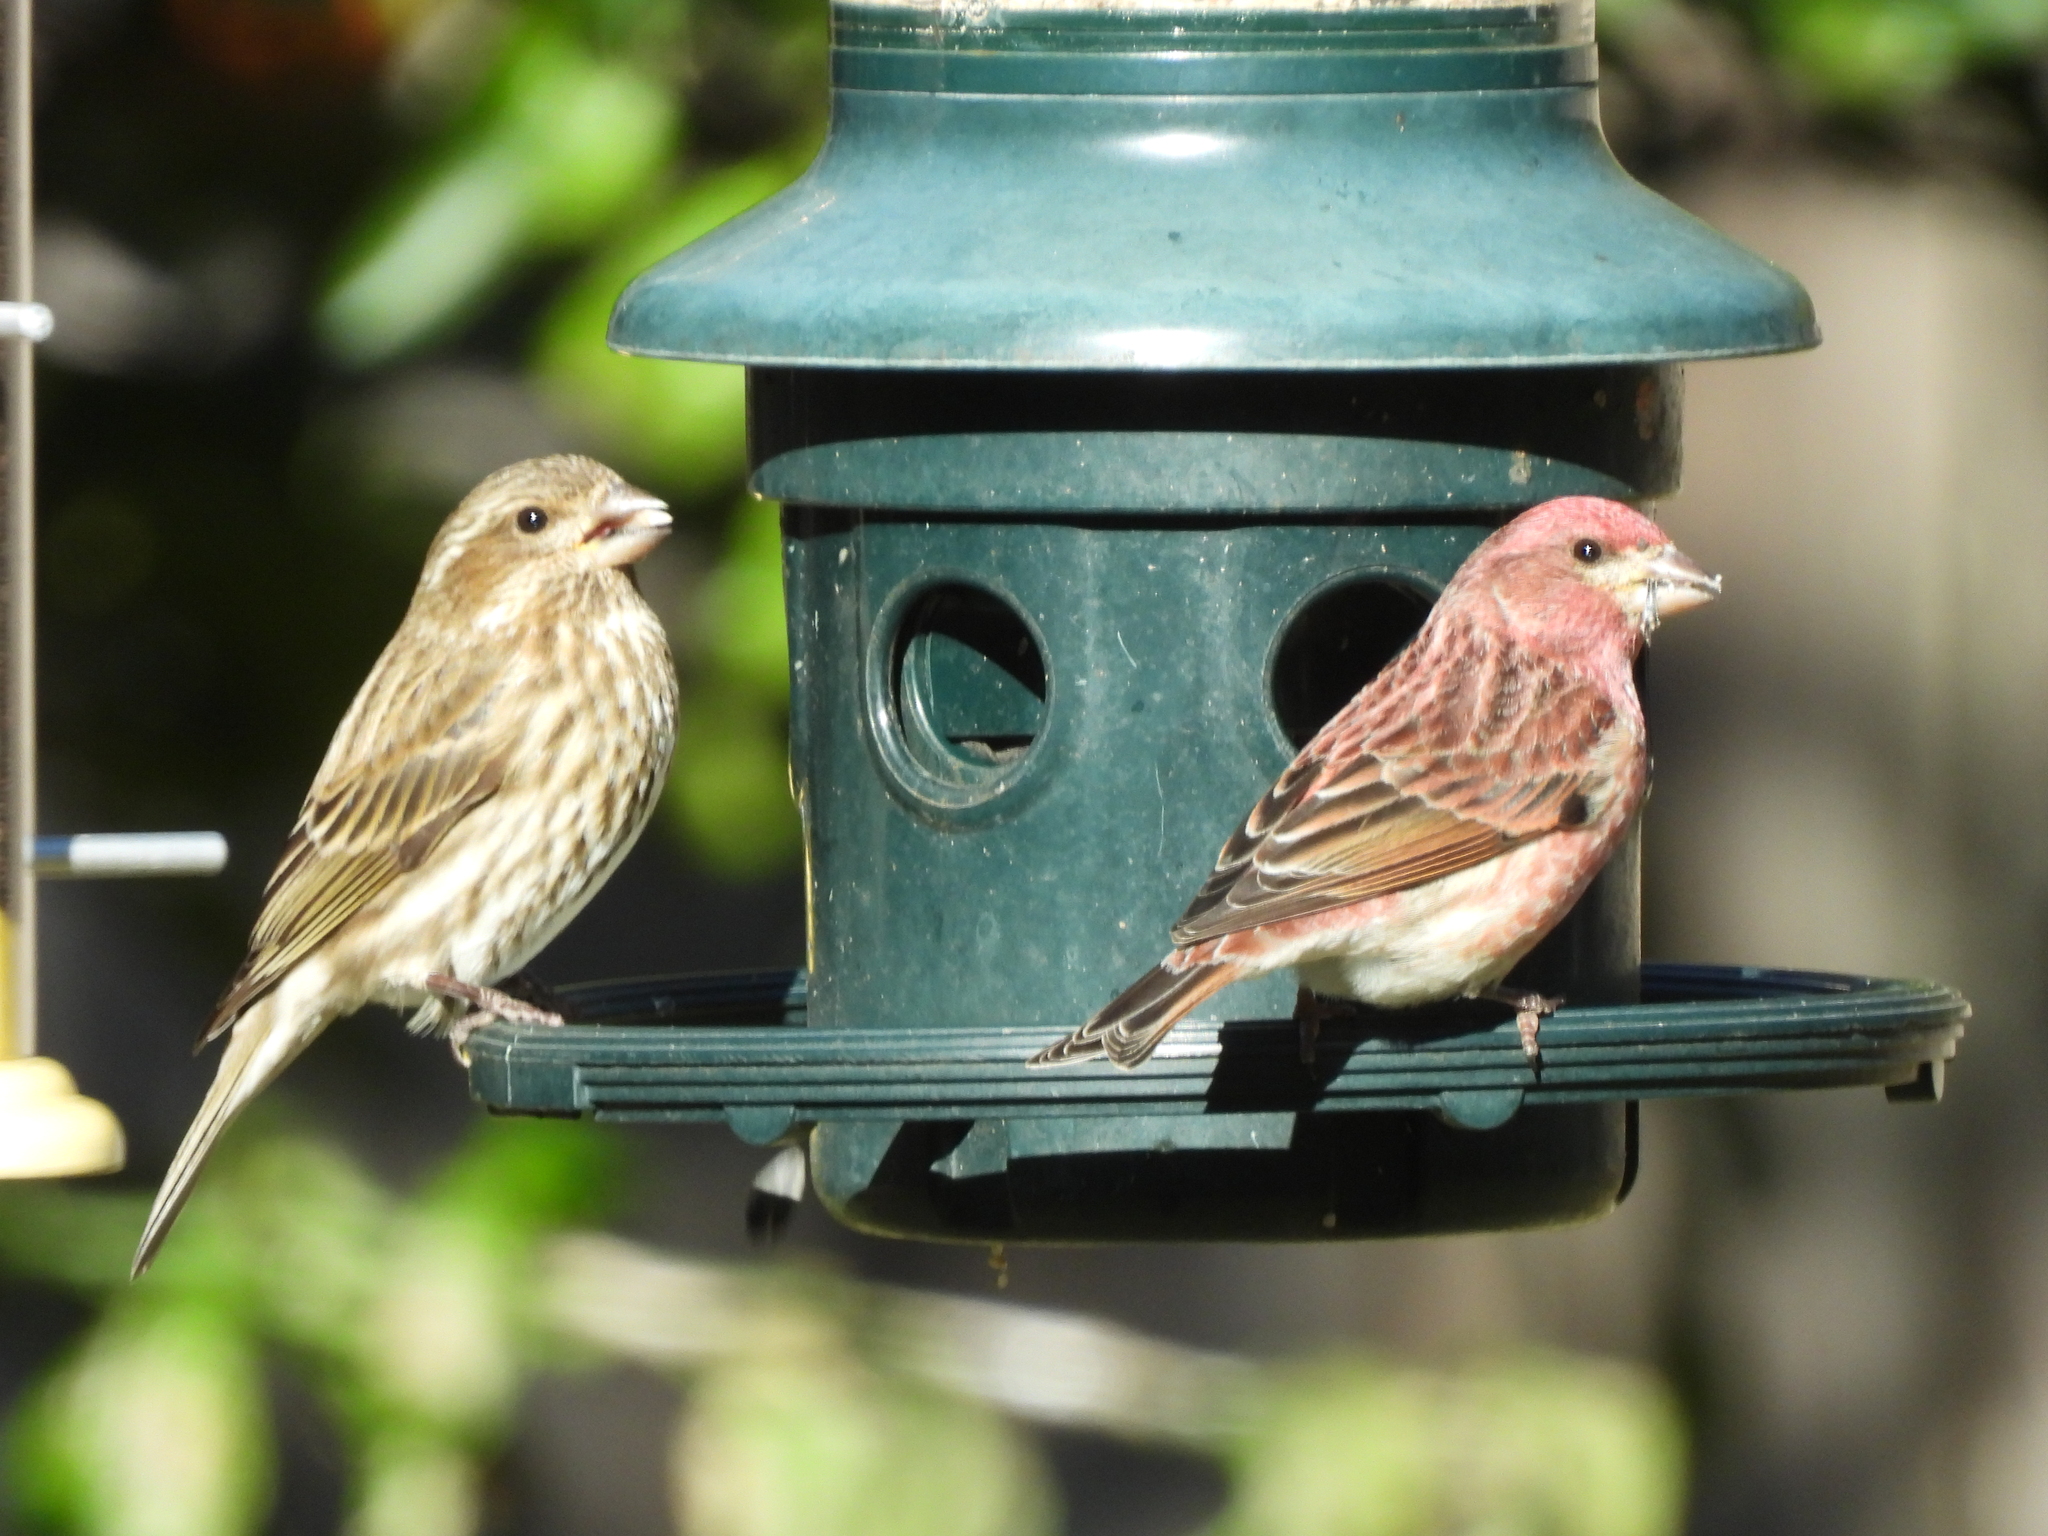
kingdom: Animalia
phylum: Chordata
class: Aves
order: Passeriformes
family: Fringillidae
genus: Haemorhous
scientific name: Haemorhous purpureus
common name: Purple finch
